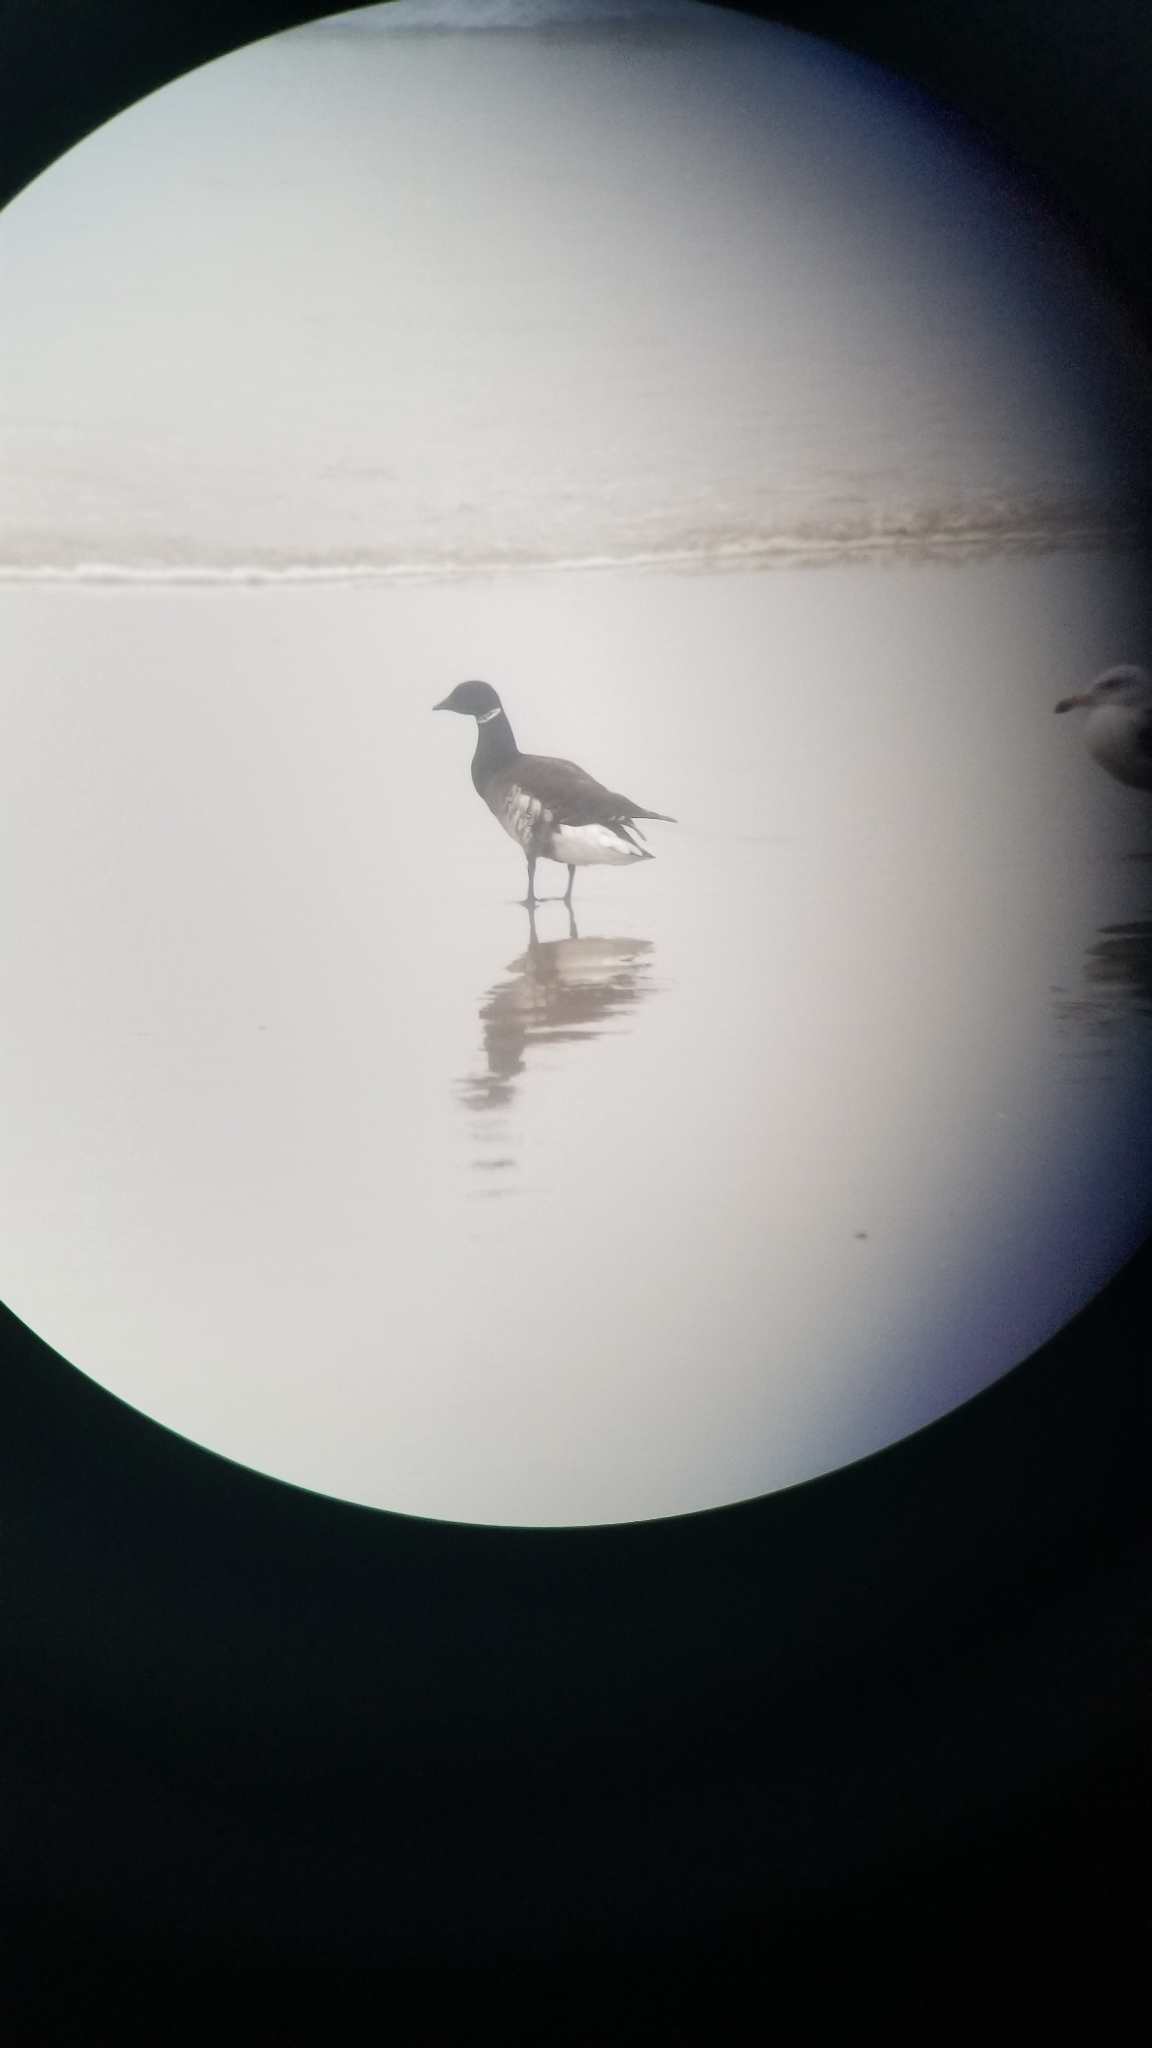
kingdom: Animalia
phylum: Chordata
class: Aves
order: Anseriformes
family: Anatidae
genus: Branta
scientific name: Branta bernicla
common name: Brant goose
